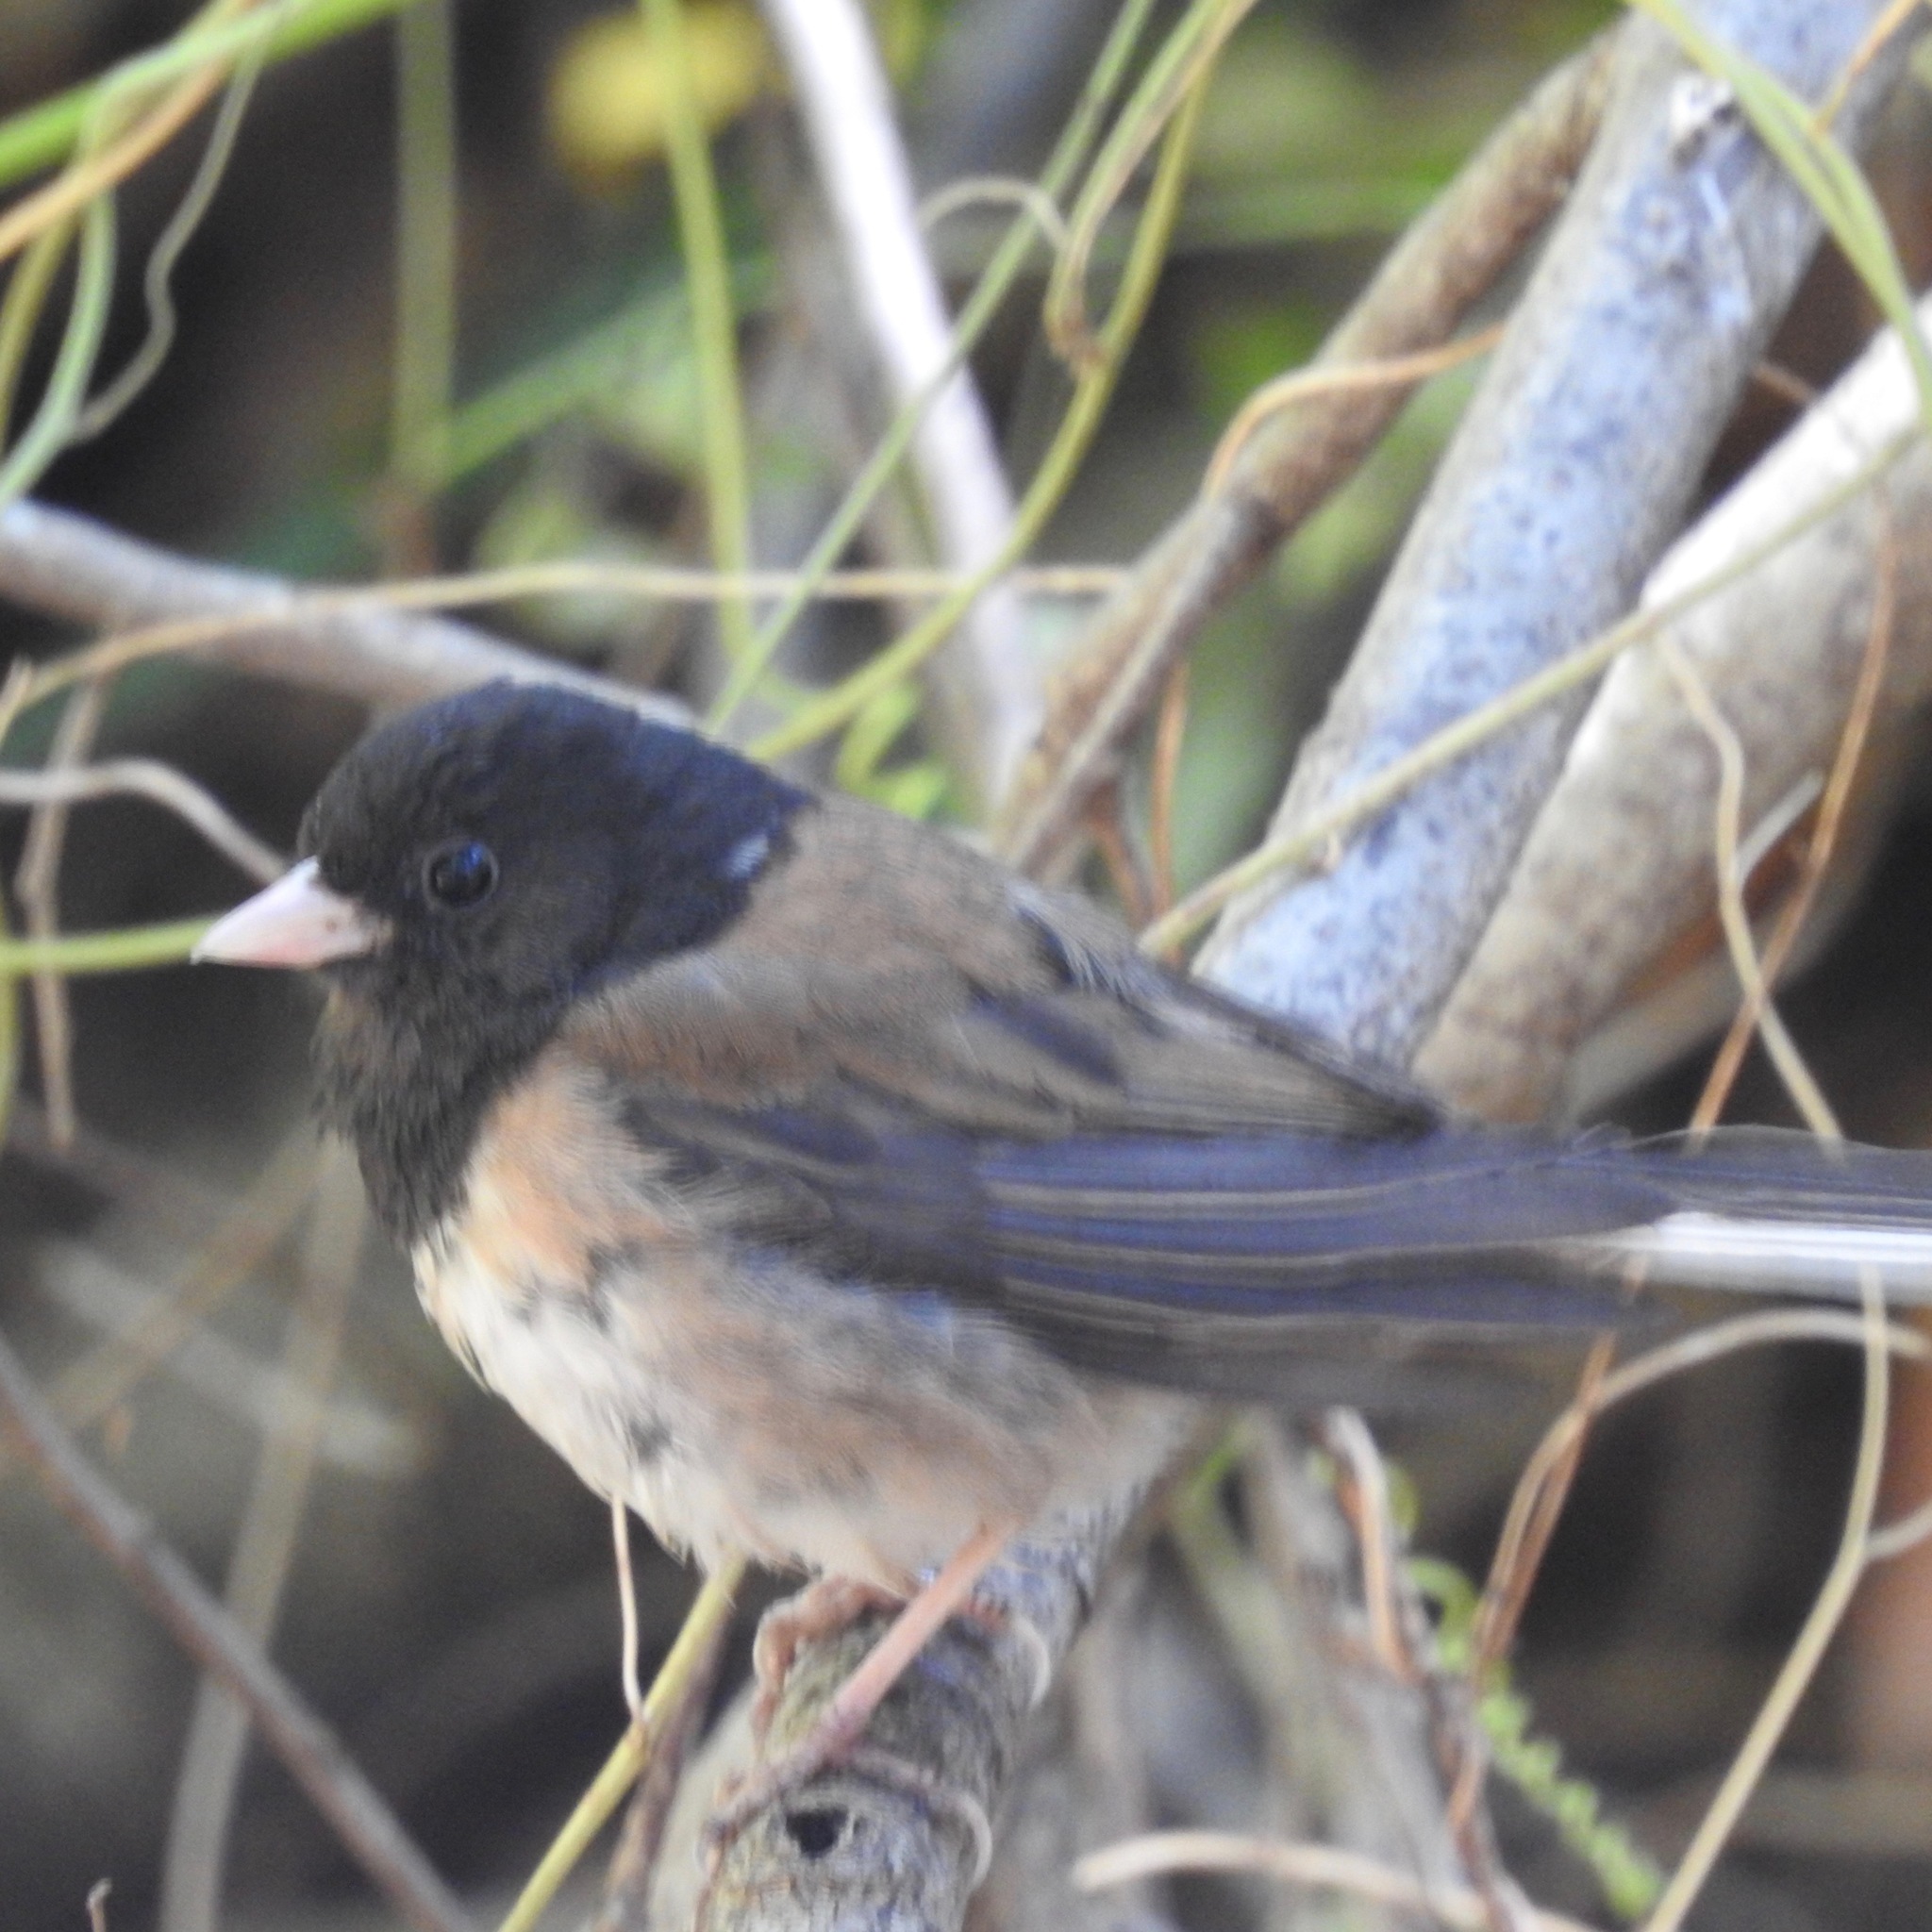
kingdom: Animalia
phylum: Chordata
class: Aves
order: Passeriformes
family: Passerellidae
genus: Junco
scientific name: Junco hyemalis
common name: Dark-eyed junco
